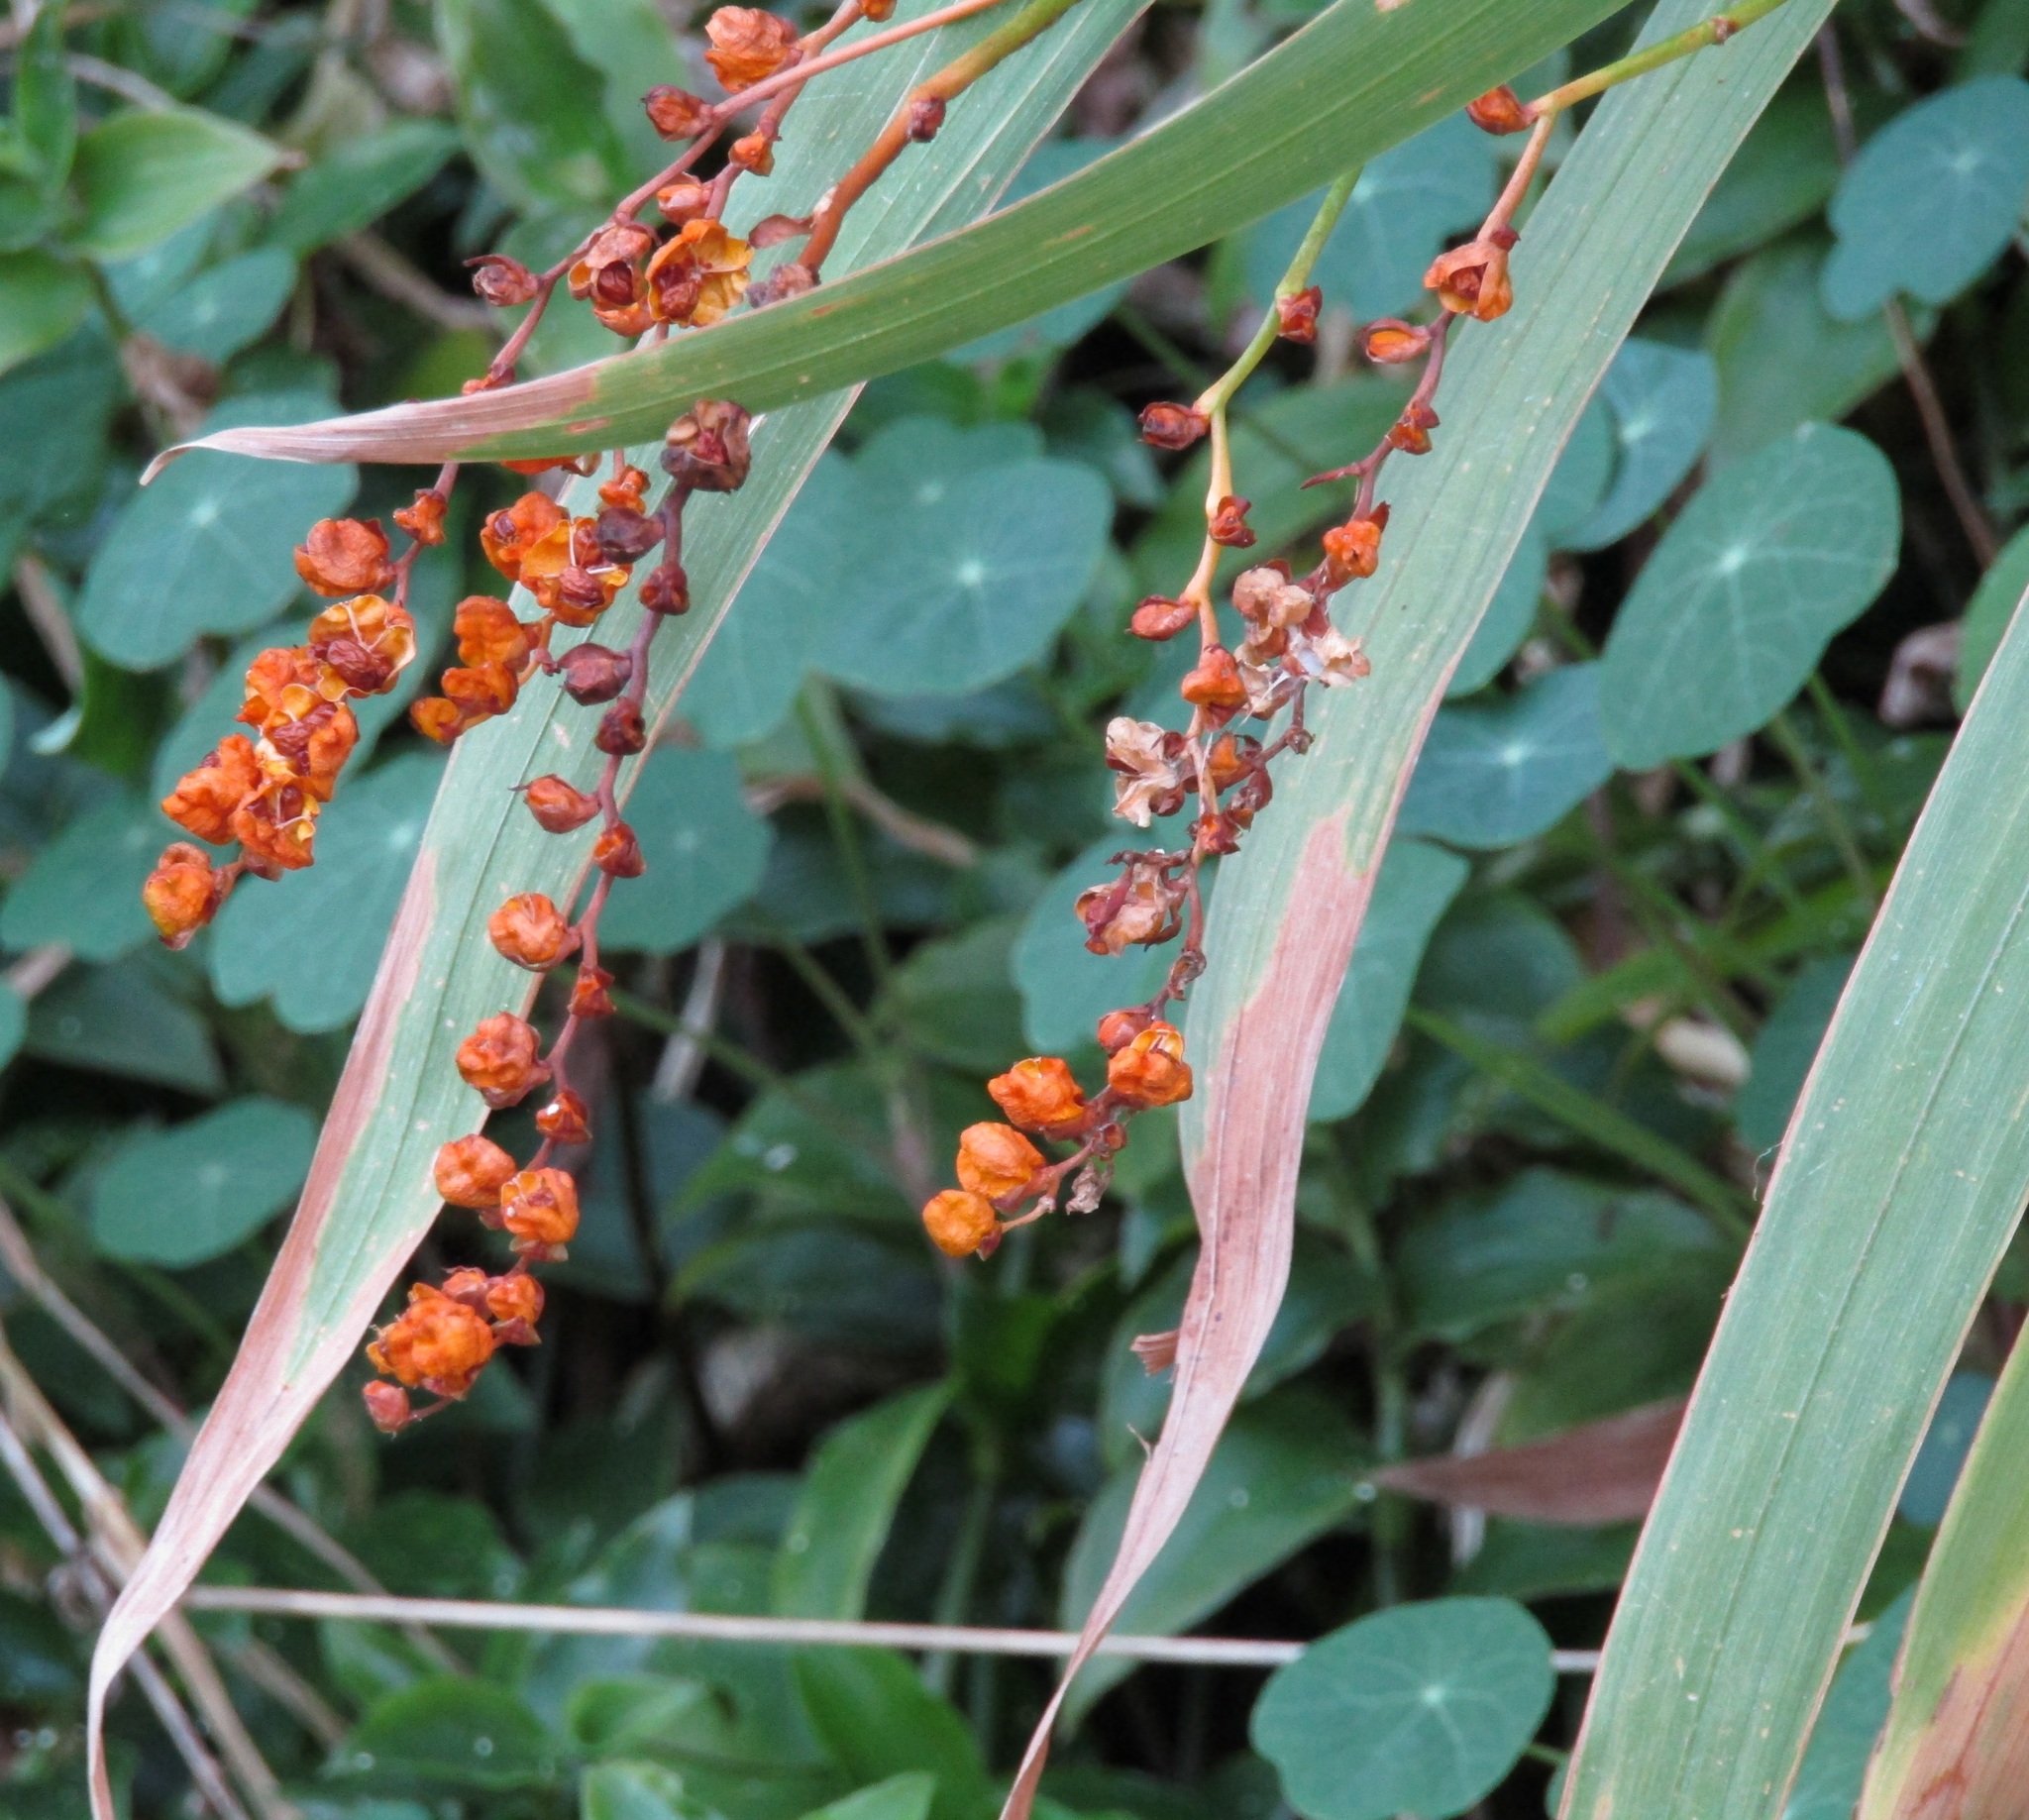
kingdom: Plantae
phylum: Tracheophyta
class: Liliopsida
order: Asparagales
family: Iridaceae
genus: Crocosmia
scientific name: Crocosmia crocosmiiflora
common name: Montbretia
